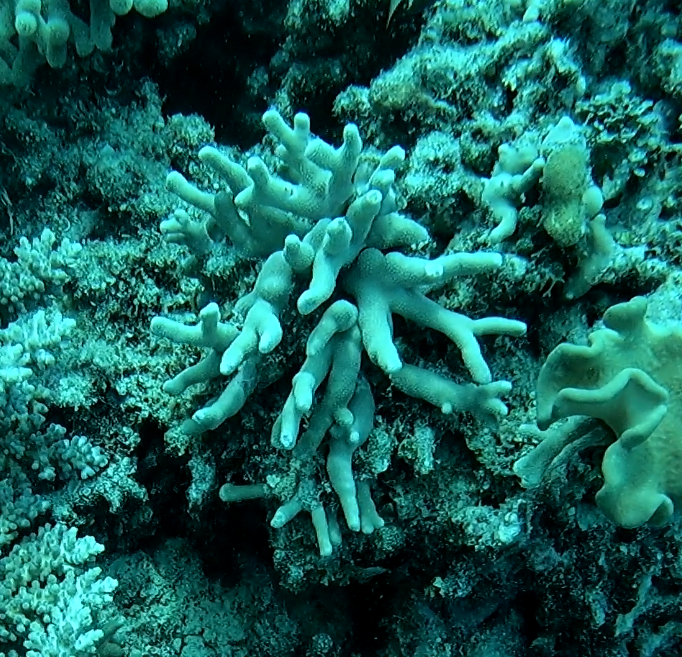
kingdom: Animalia
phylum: Cnidaria
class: Anthozoa
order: Scleractinia
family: Poritidae
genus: Porites
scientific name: Porites cylindrica
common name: Hump coral
